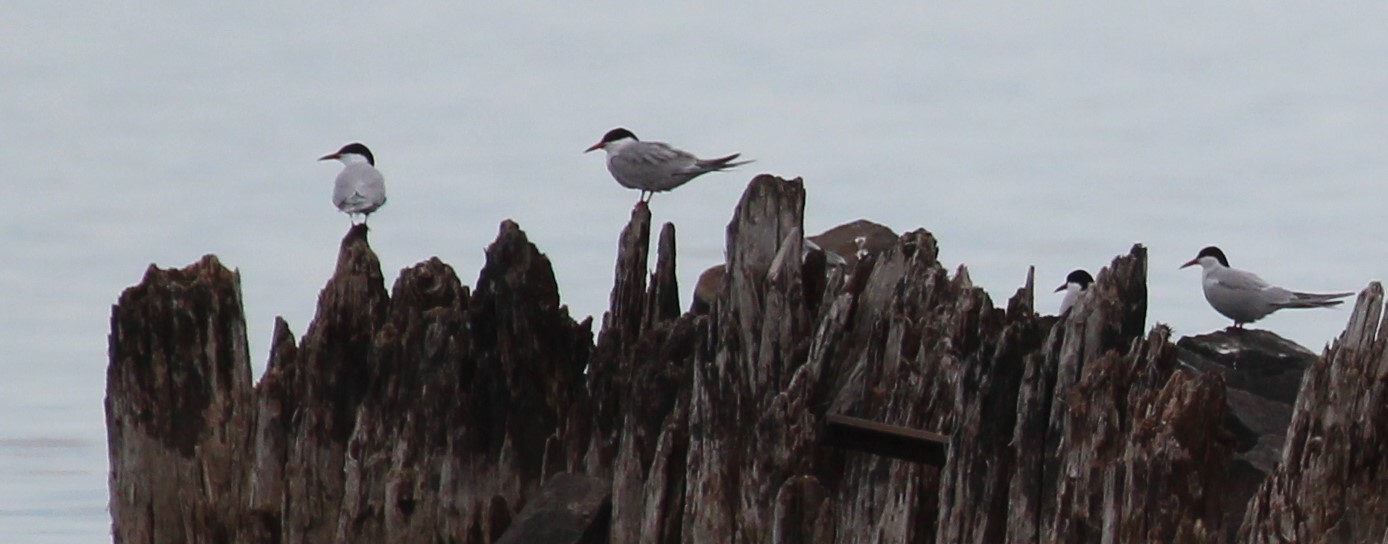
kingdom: Animalia
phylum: Chordata
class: Aves
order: Charadriiformes
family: Laridae
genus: Sterna
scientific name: Sterna hirundo
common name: Common tern
